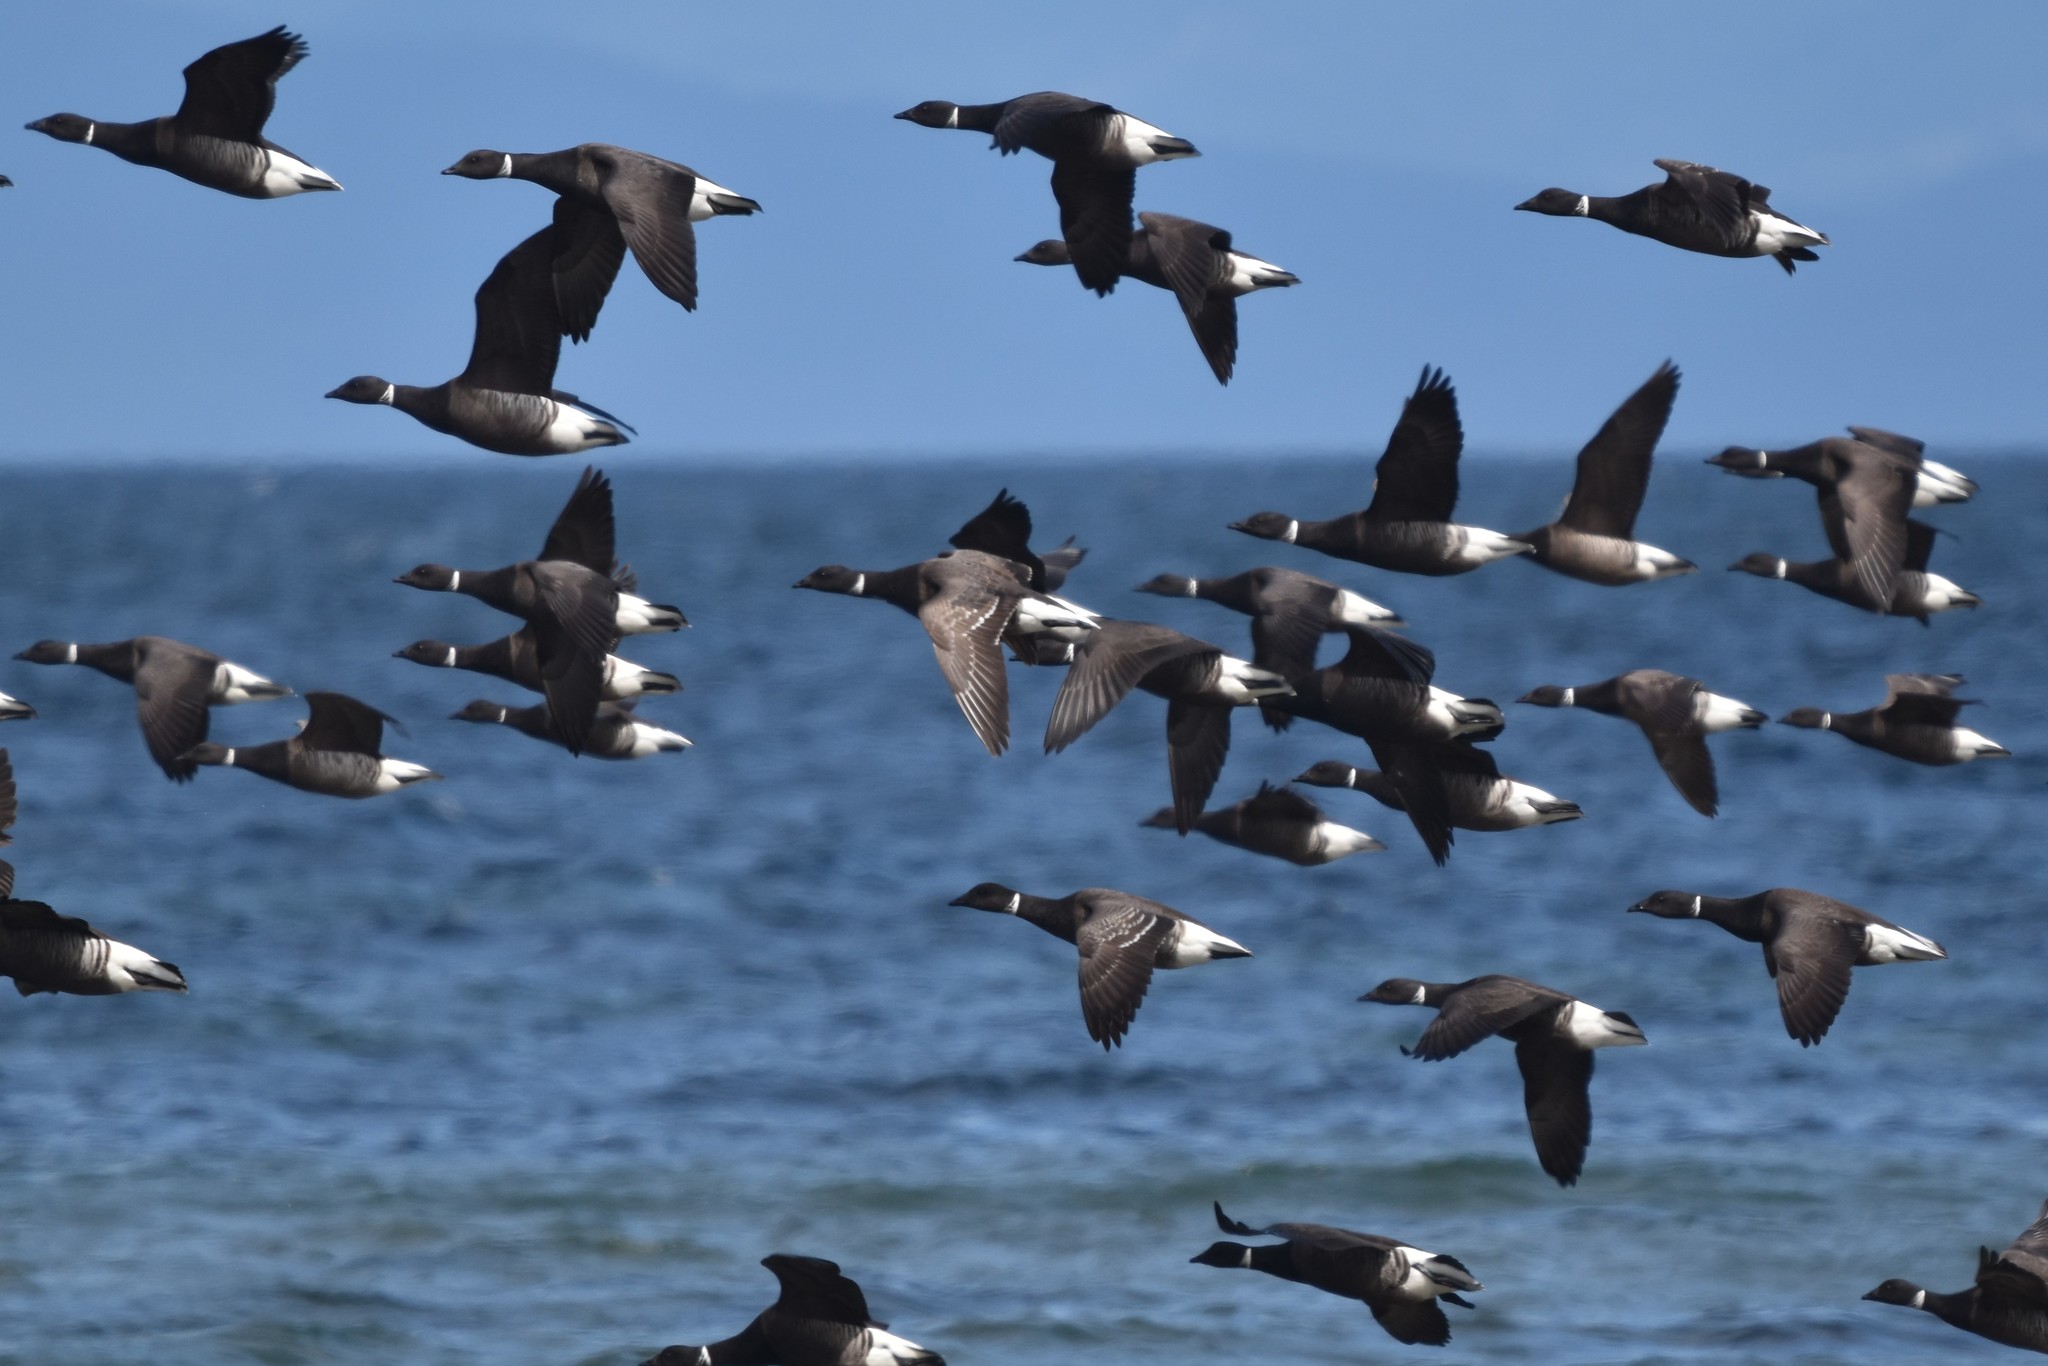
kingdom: Animalia
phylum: Chordata
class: Aves
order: Anseriformes
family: Anatidae
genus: Branta
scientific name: Branta bernicla
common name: Brant goose
